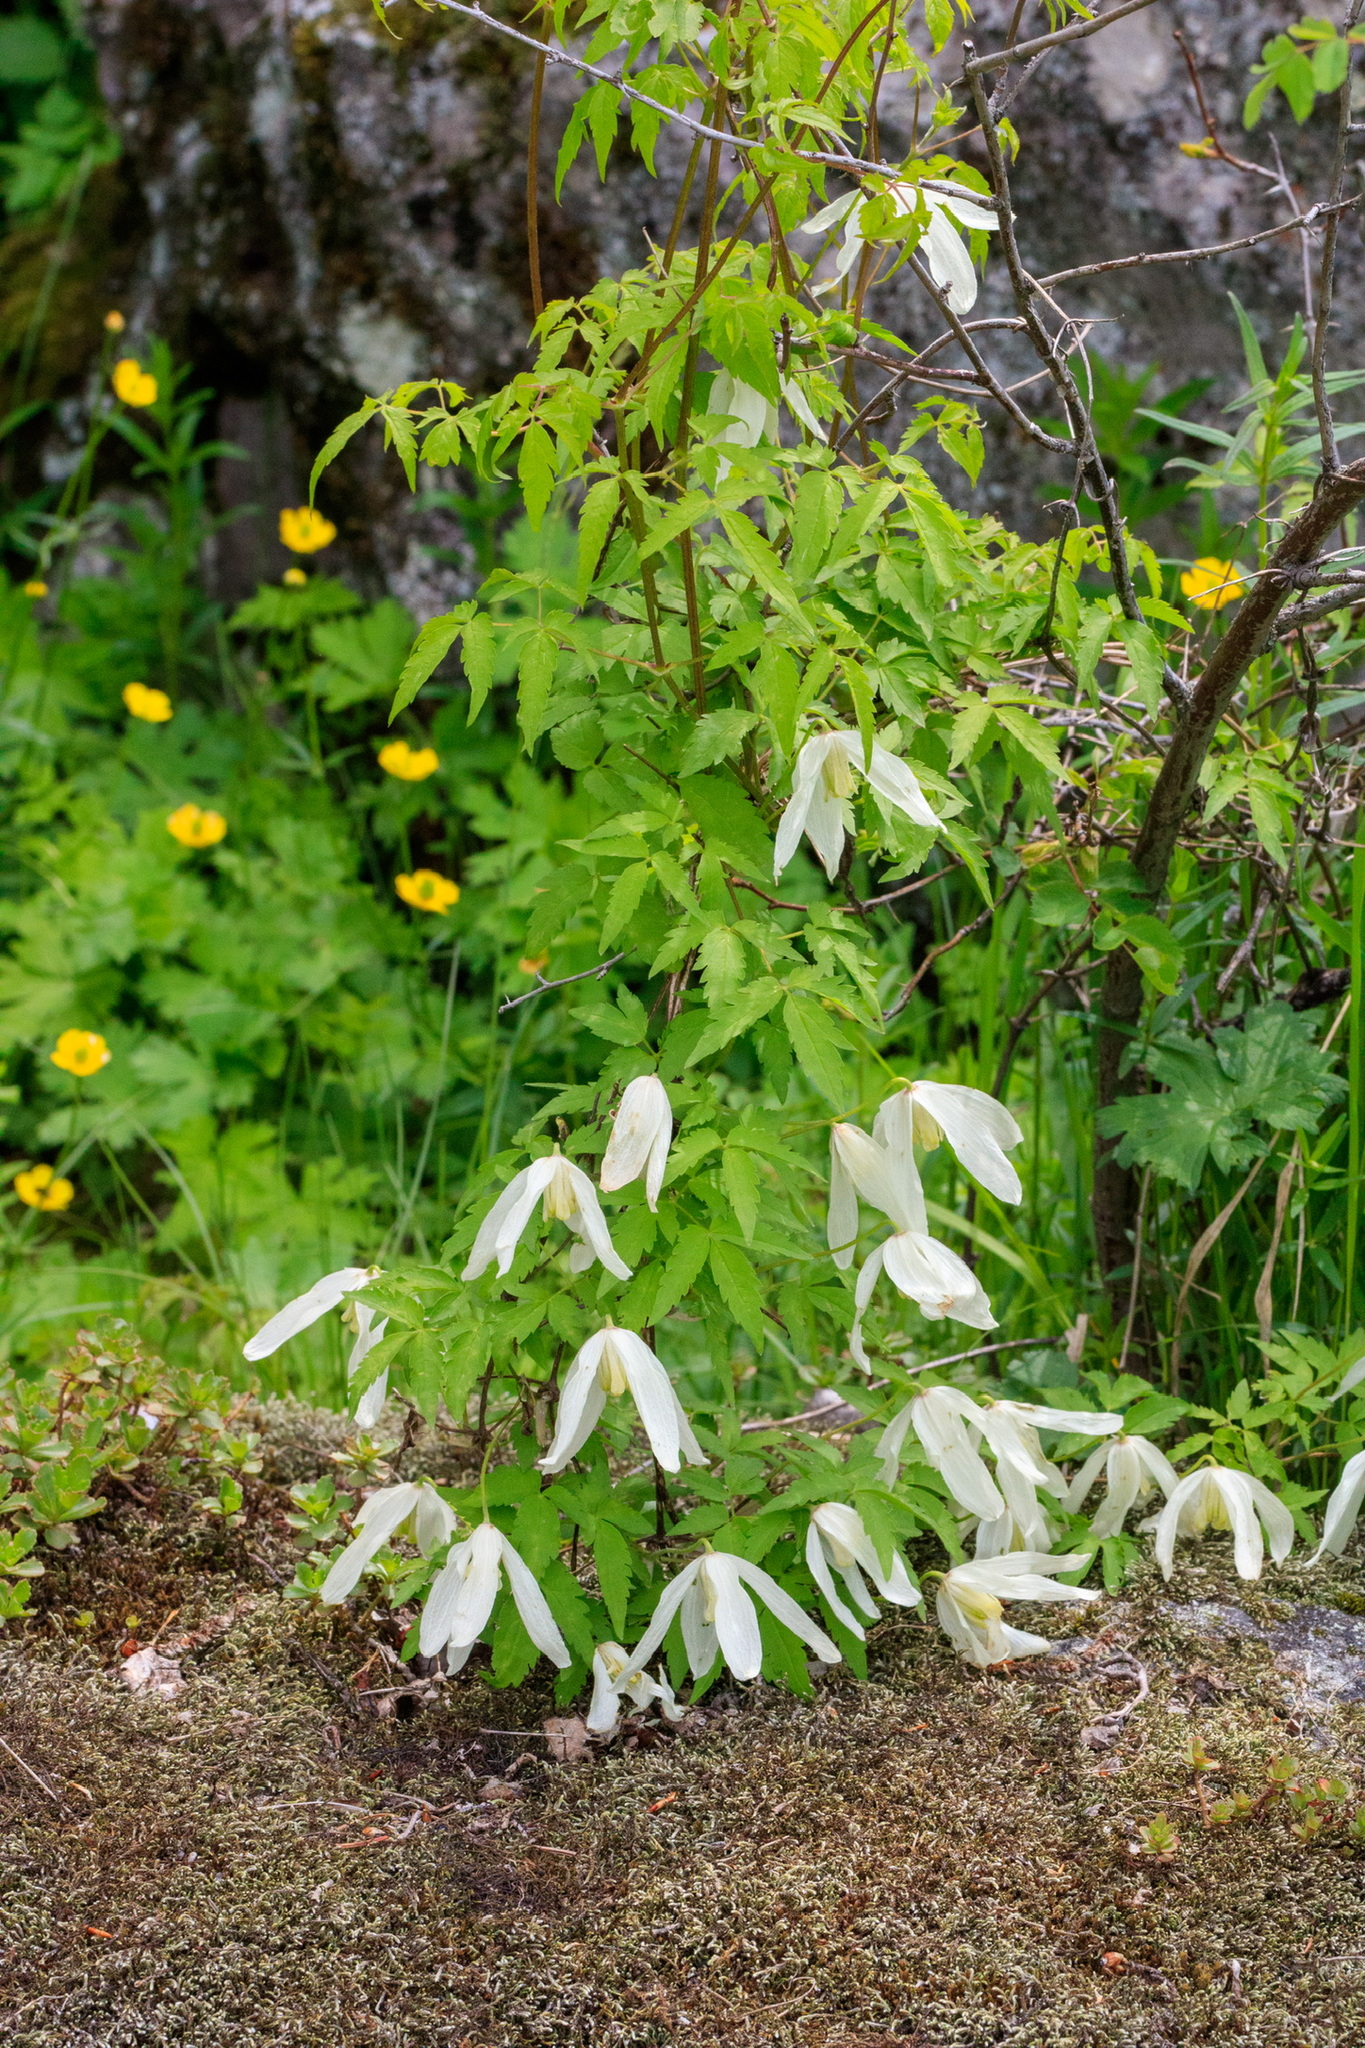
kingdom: Plantae
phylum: Tracheophyta
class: Magnoliopsida
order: Ranunculales
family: Ranunculaceae
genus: Clematis
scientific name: Clematis sibirica
